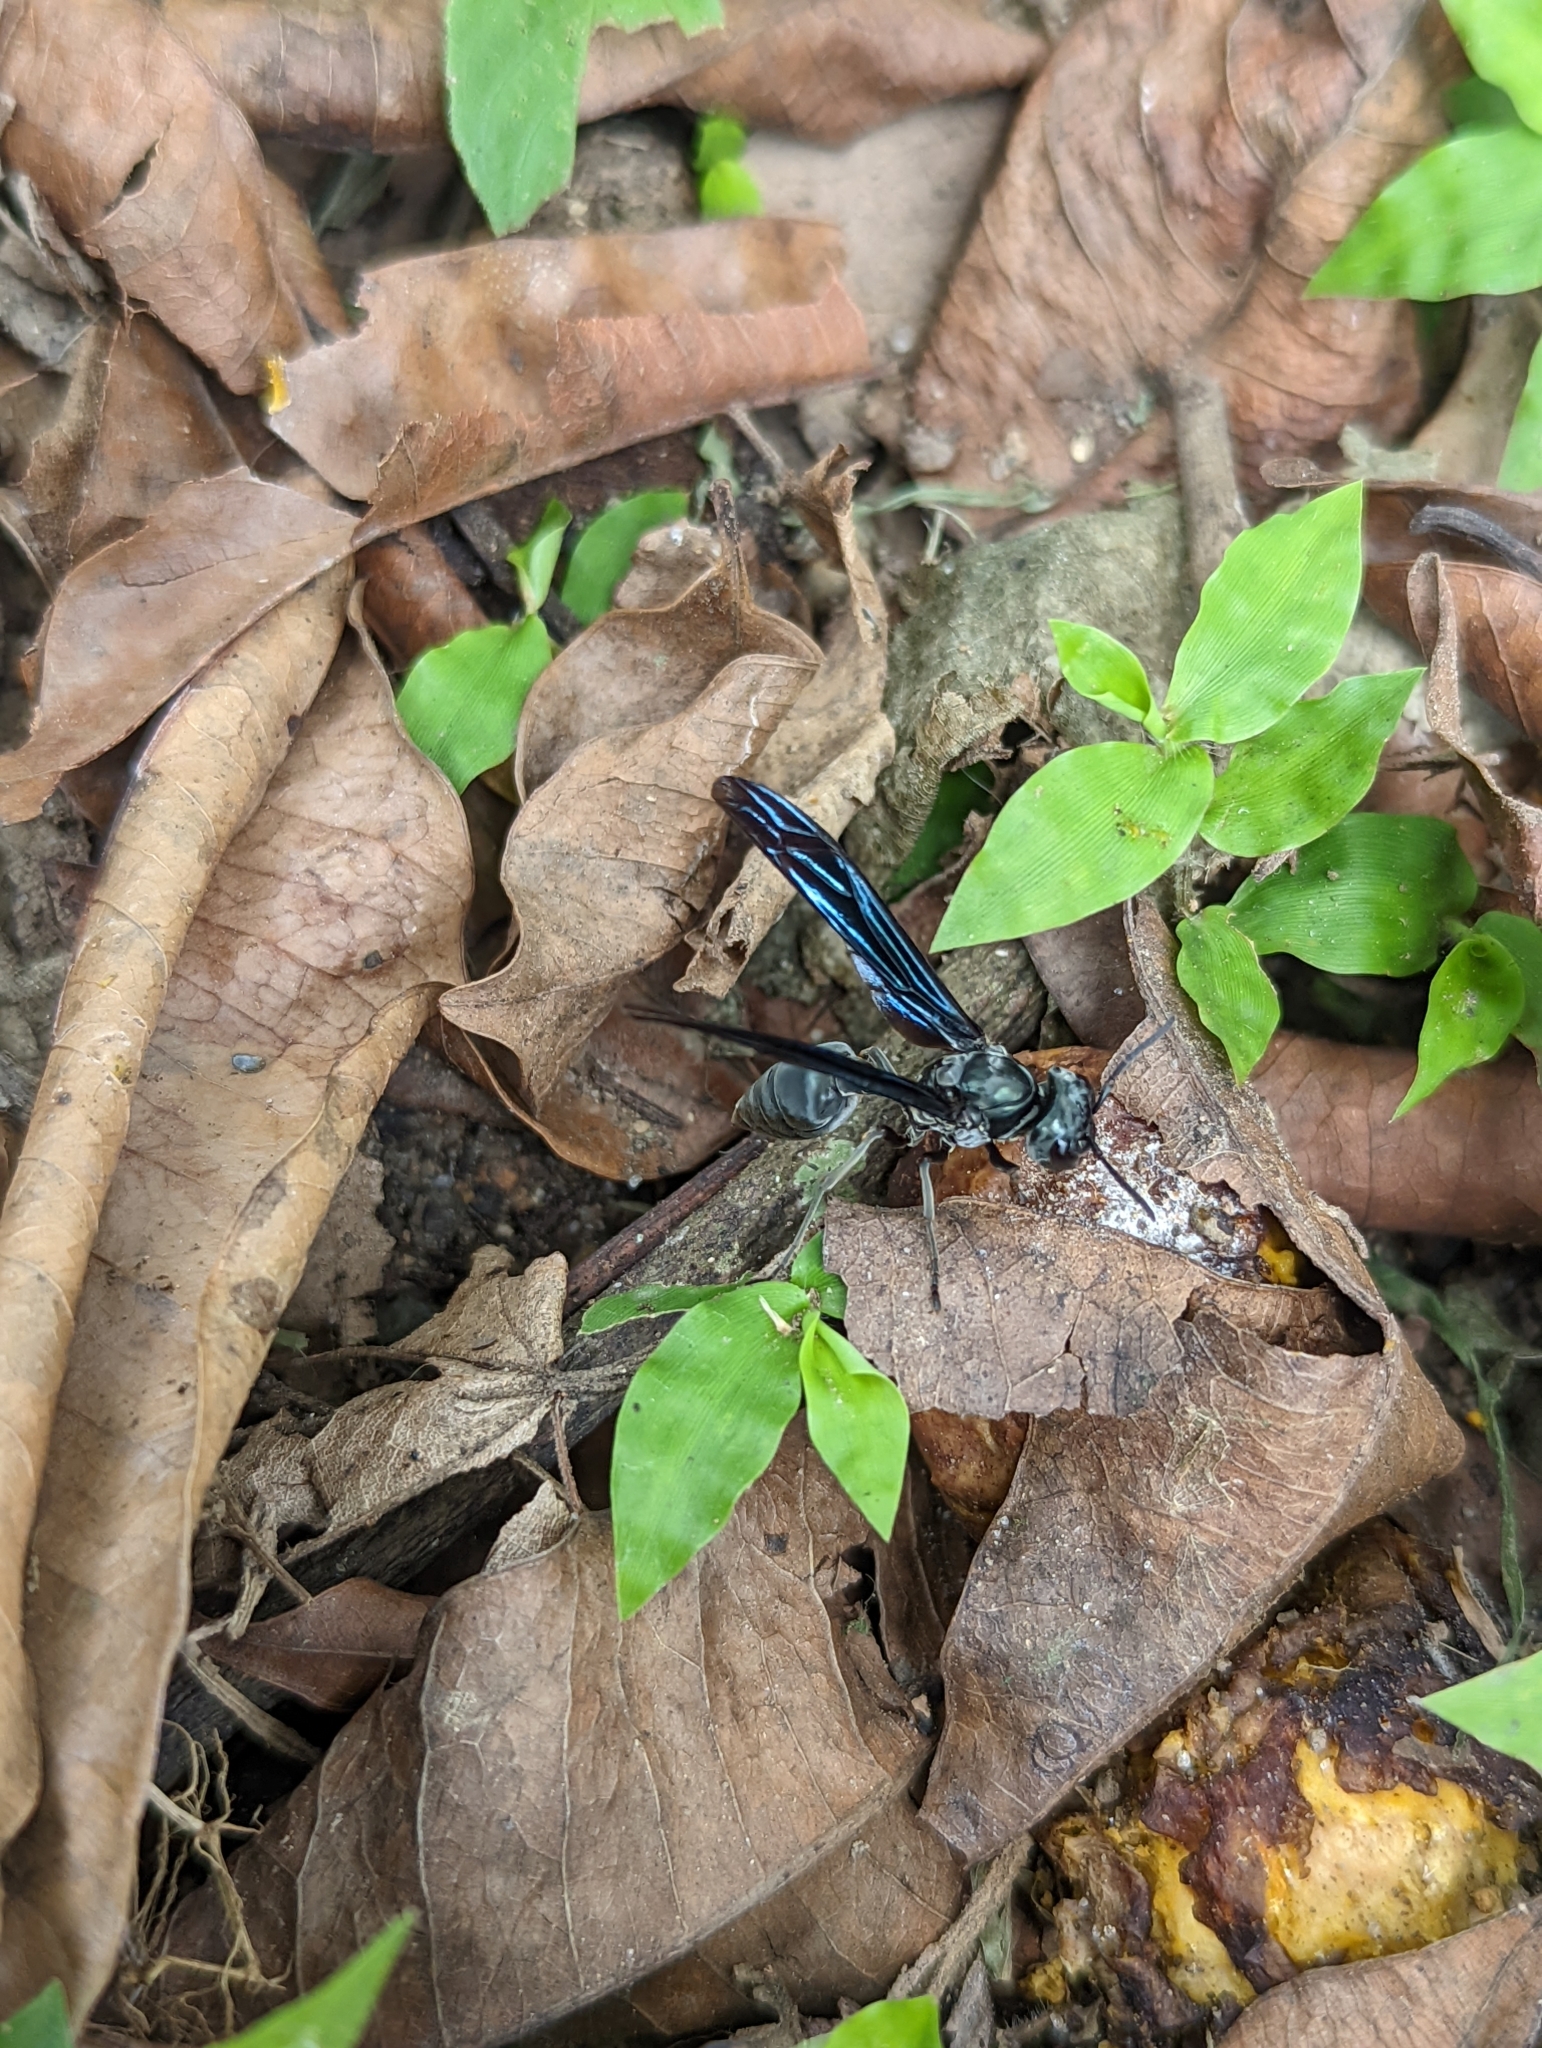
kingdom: Animalia
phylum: Arthropoda
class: Insecta
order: Hymenoptera
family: Vespidae
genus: Synoeca
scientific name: Synoeca septentrionalis
